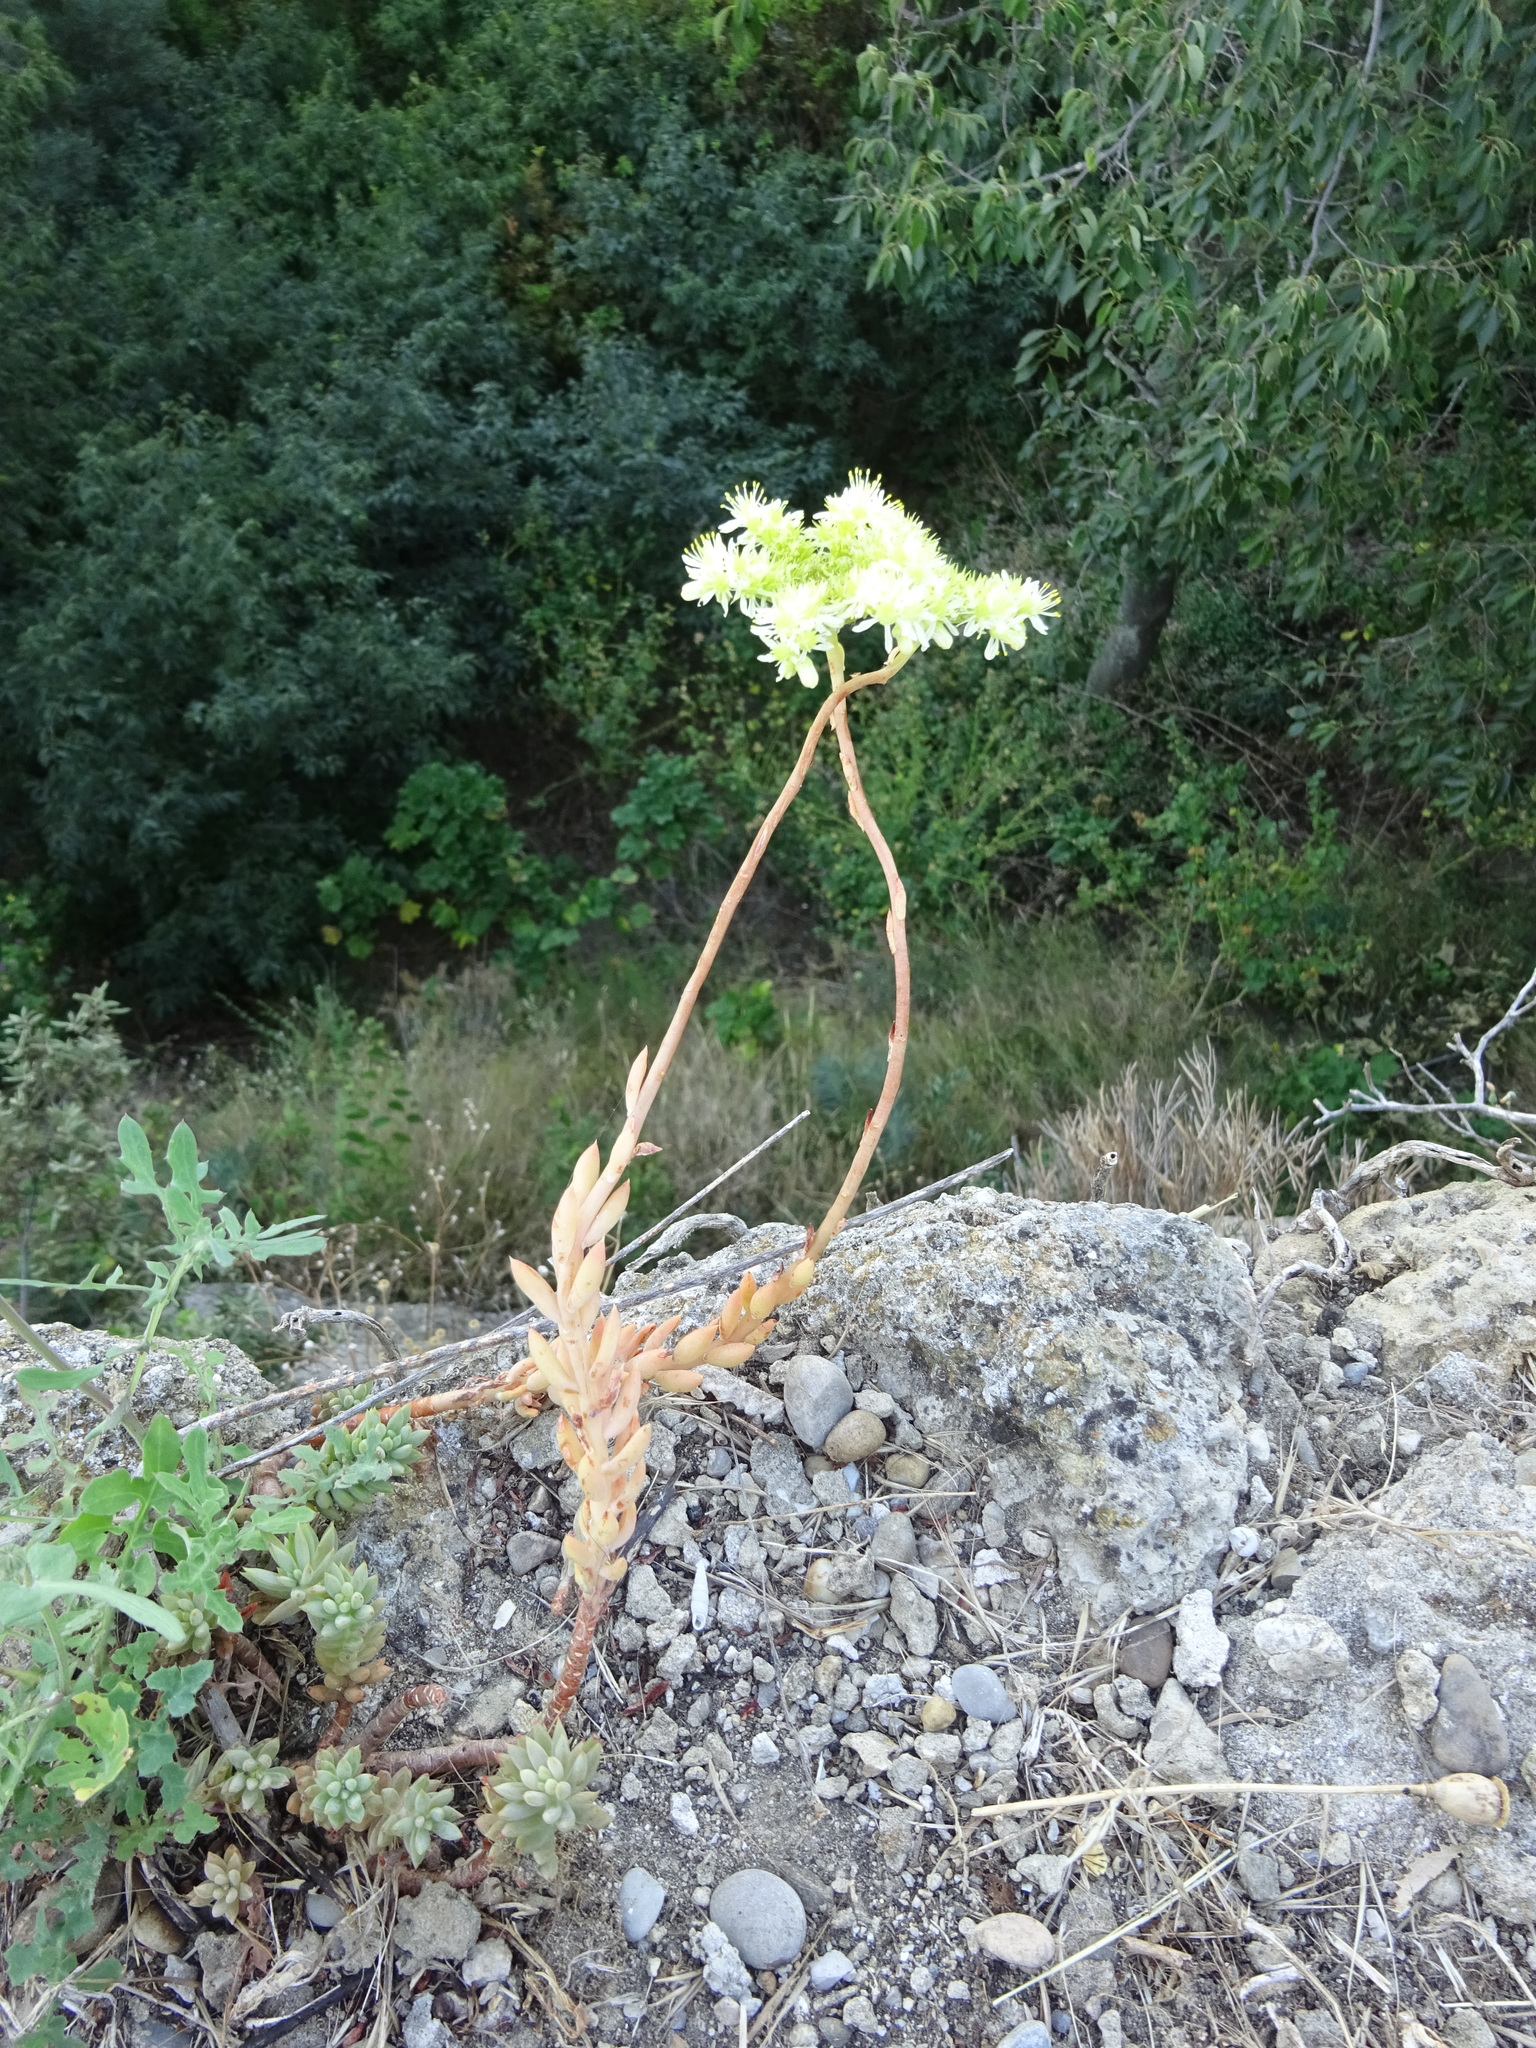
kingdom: Plantae
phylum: Tracheophyta
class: Magnoliopsida
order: Saxifragales
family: Crassulaceae
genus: Petrosedum
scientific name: Petrosedum sediforme
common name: Pale stonecrop
